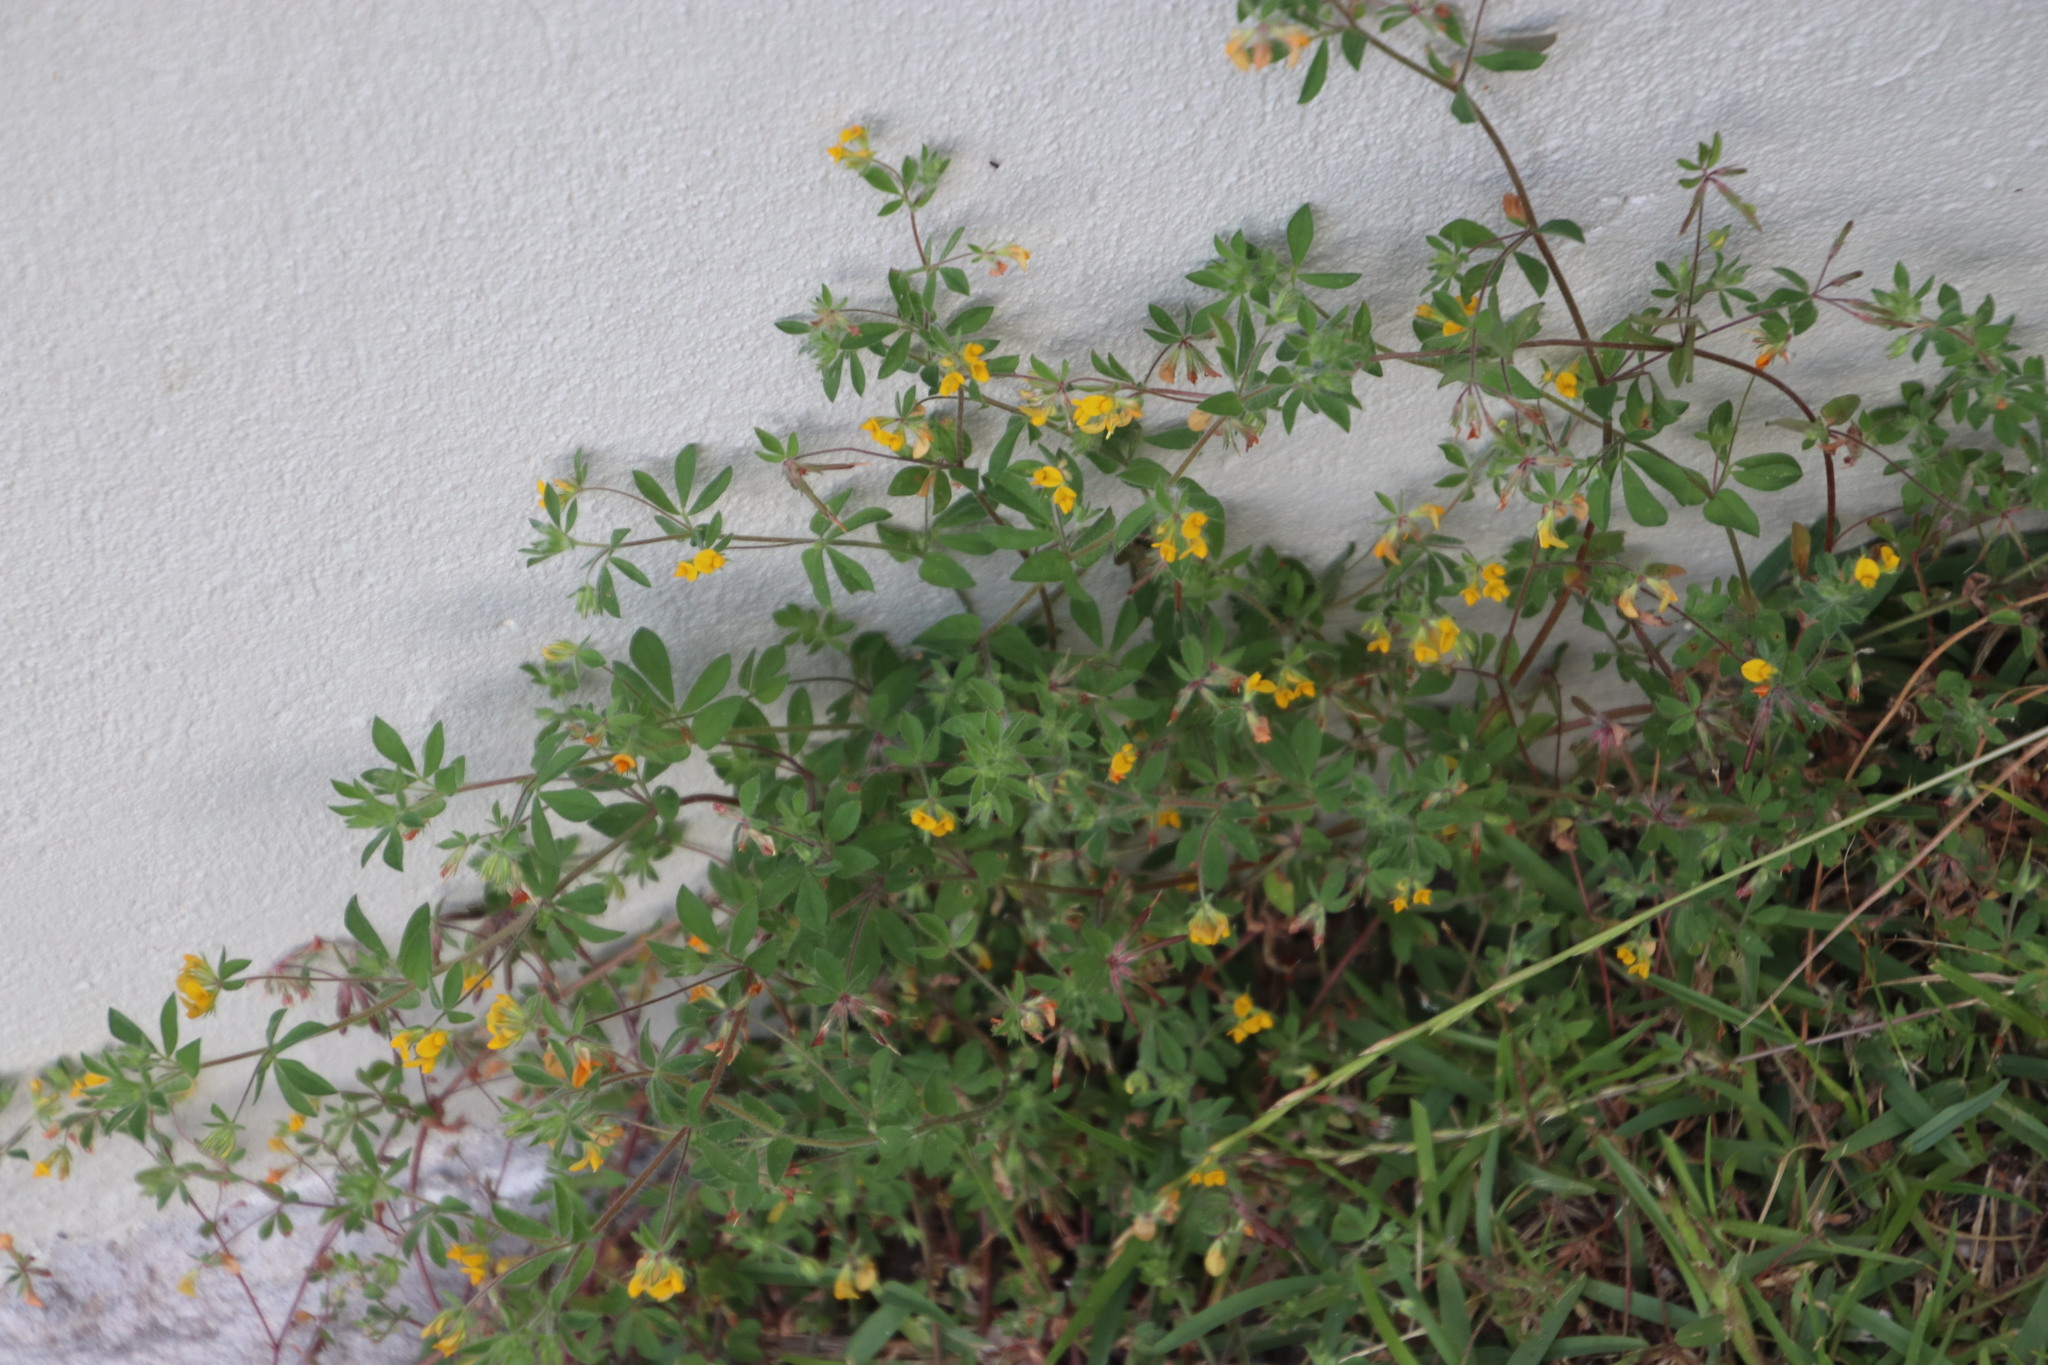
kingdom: Plantae
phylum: Tracheophyta
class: Magnoliopsida
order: Fabales
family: Fabaceae
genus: Lotus
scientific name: Lotus subbiflorus
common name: Hairy bird's-foot trefoil
